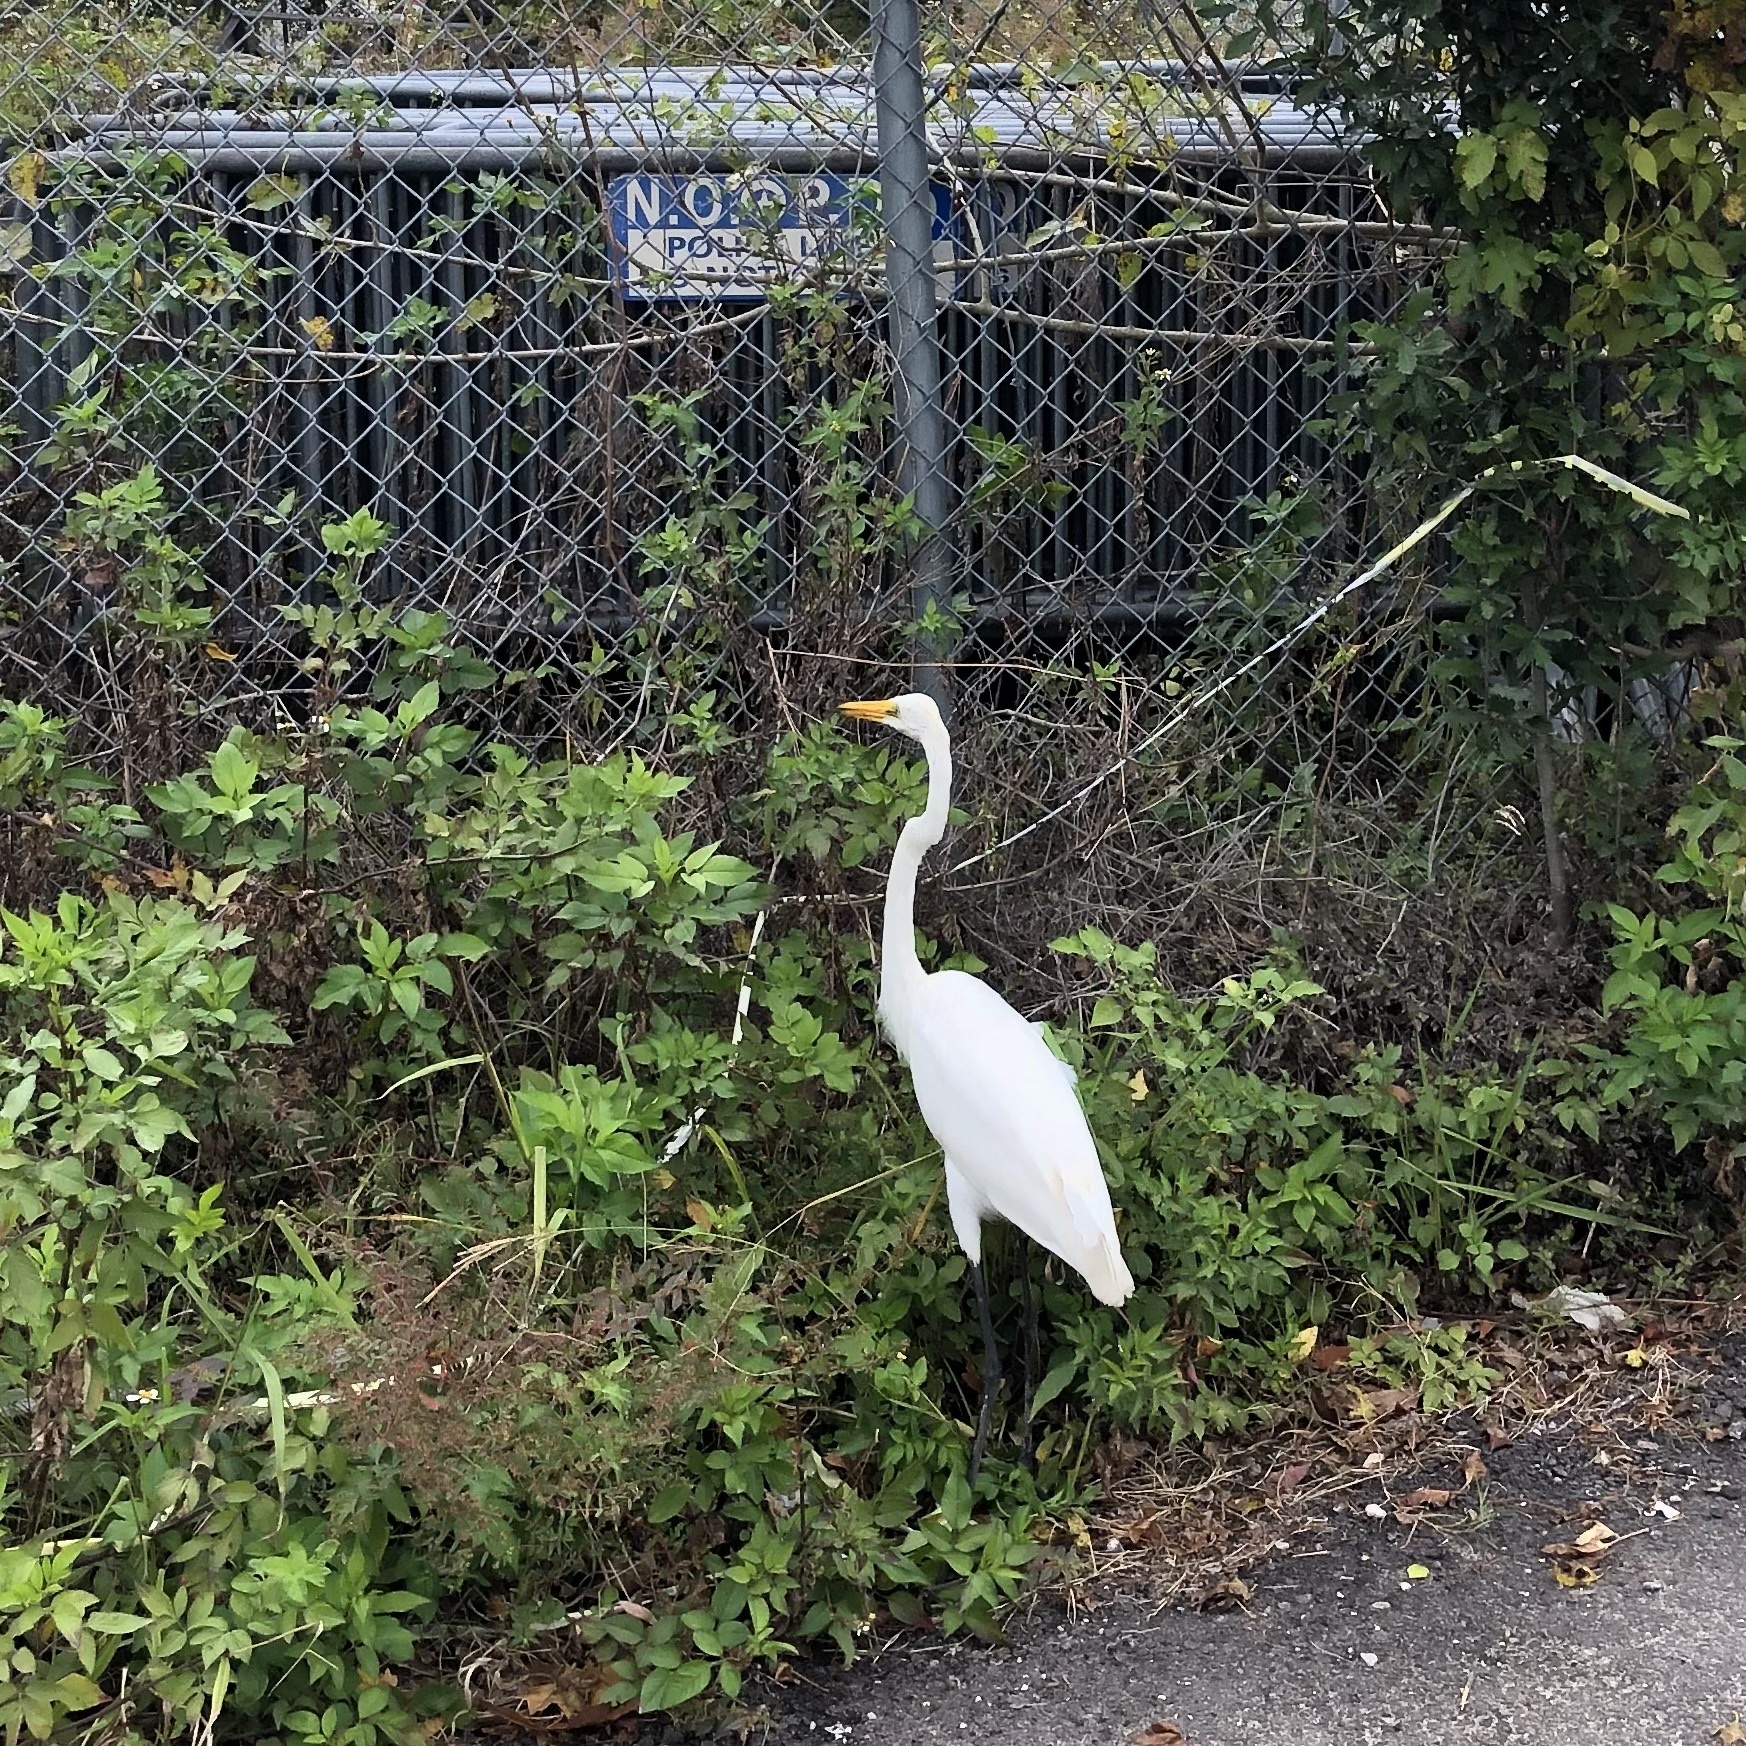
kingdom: Animalia
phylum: Chordata
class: Aves
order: Pelecaniformes
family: Ardeidae
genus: Ardea
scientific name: Ardea alba
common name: Great egret
